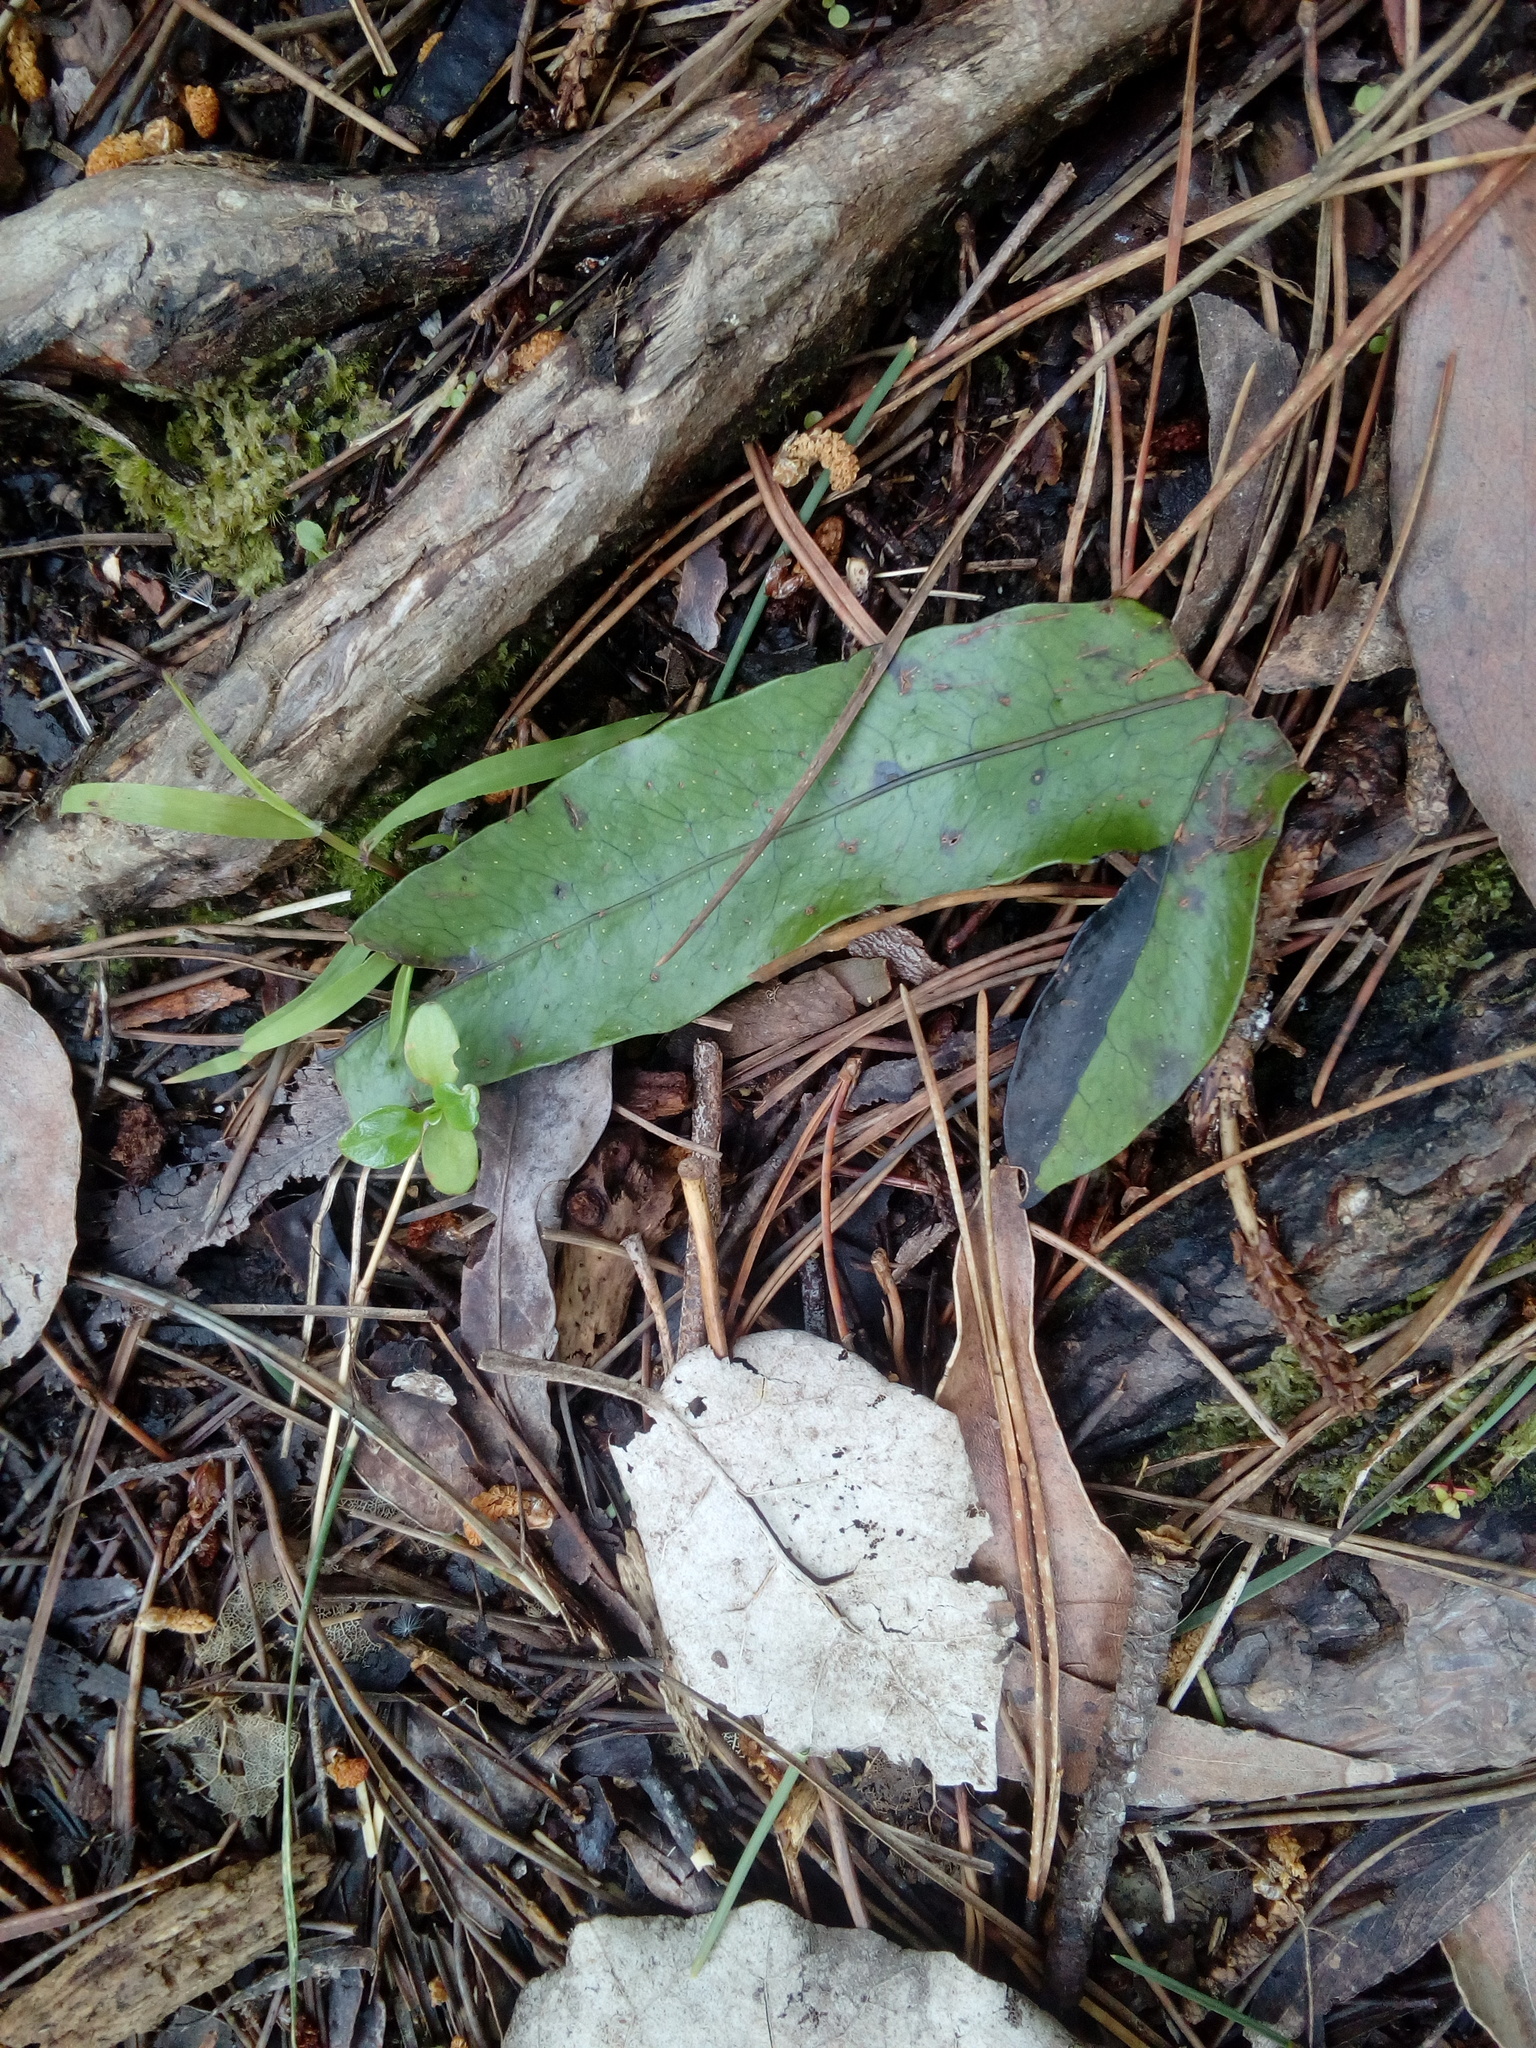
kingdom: Plantae
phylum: Tracheophyta
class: Polypodiopsida
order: Polypodiales
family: Polypodiaceae
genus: Lecanopteris
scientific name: Lecanopteris pustulata
